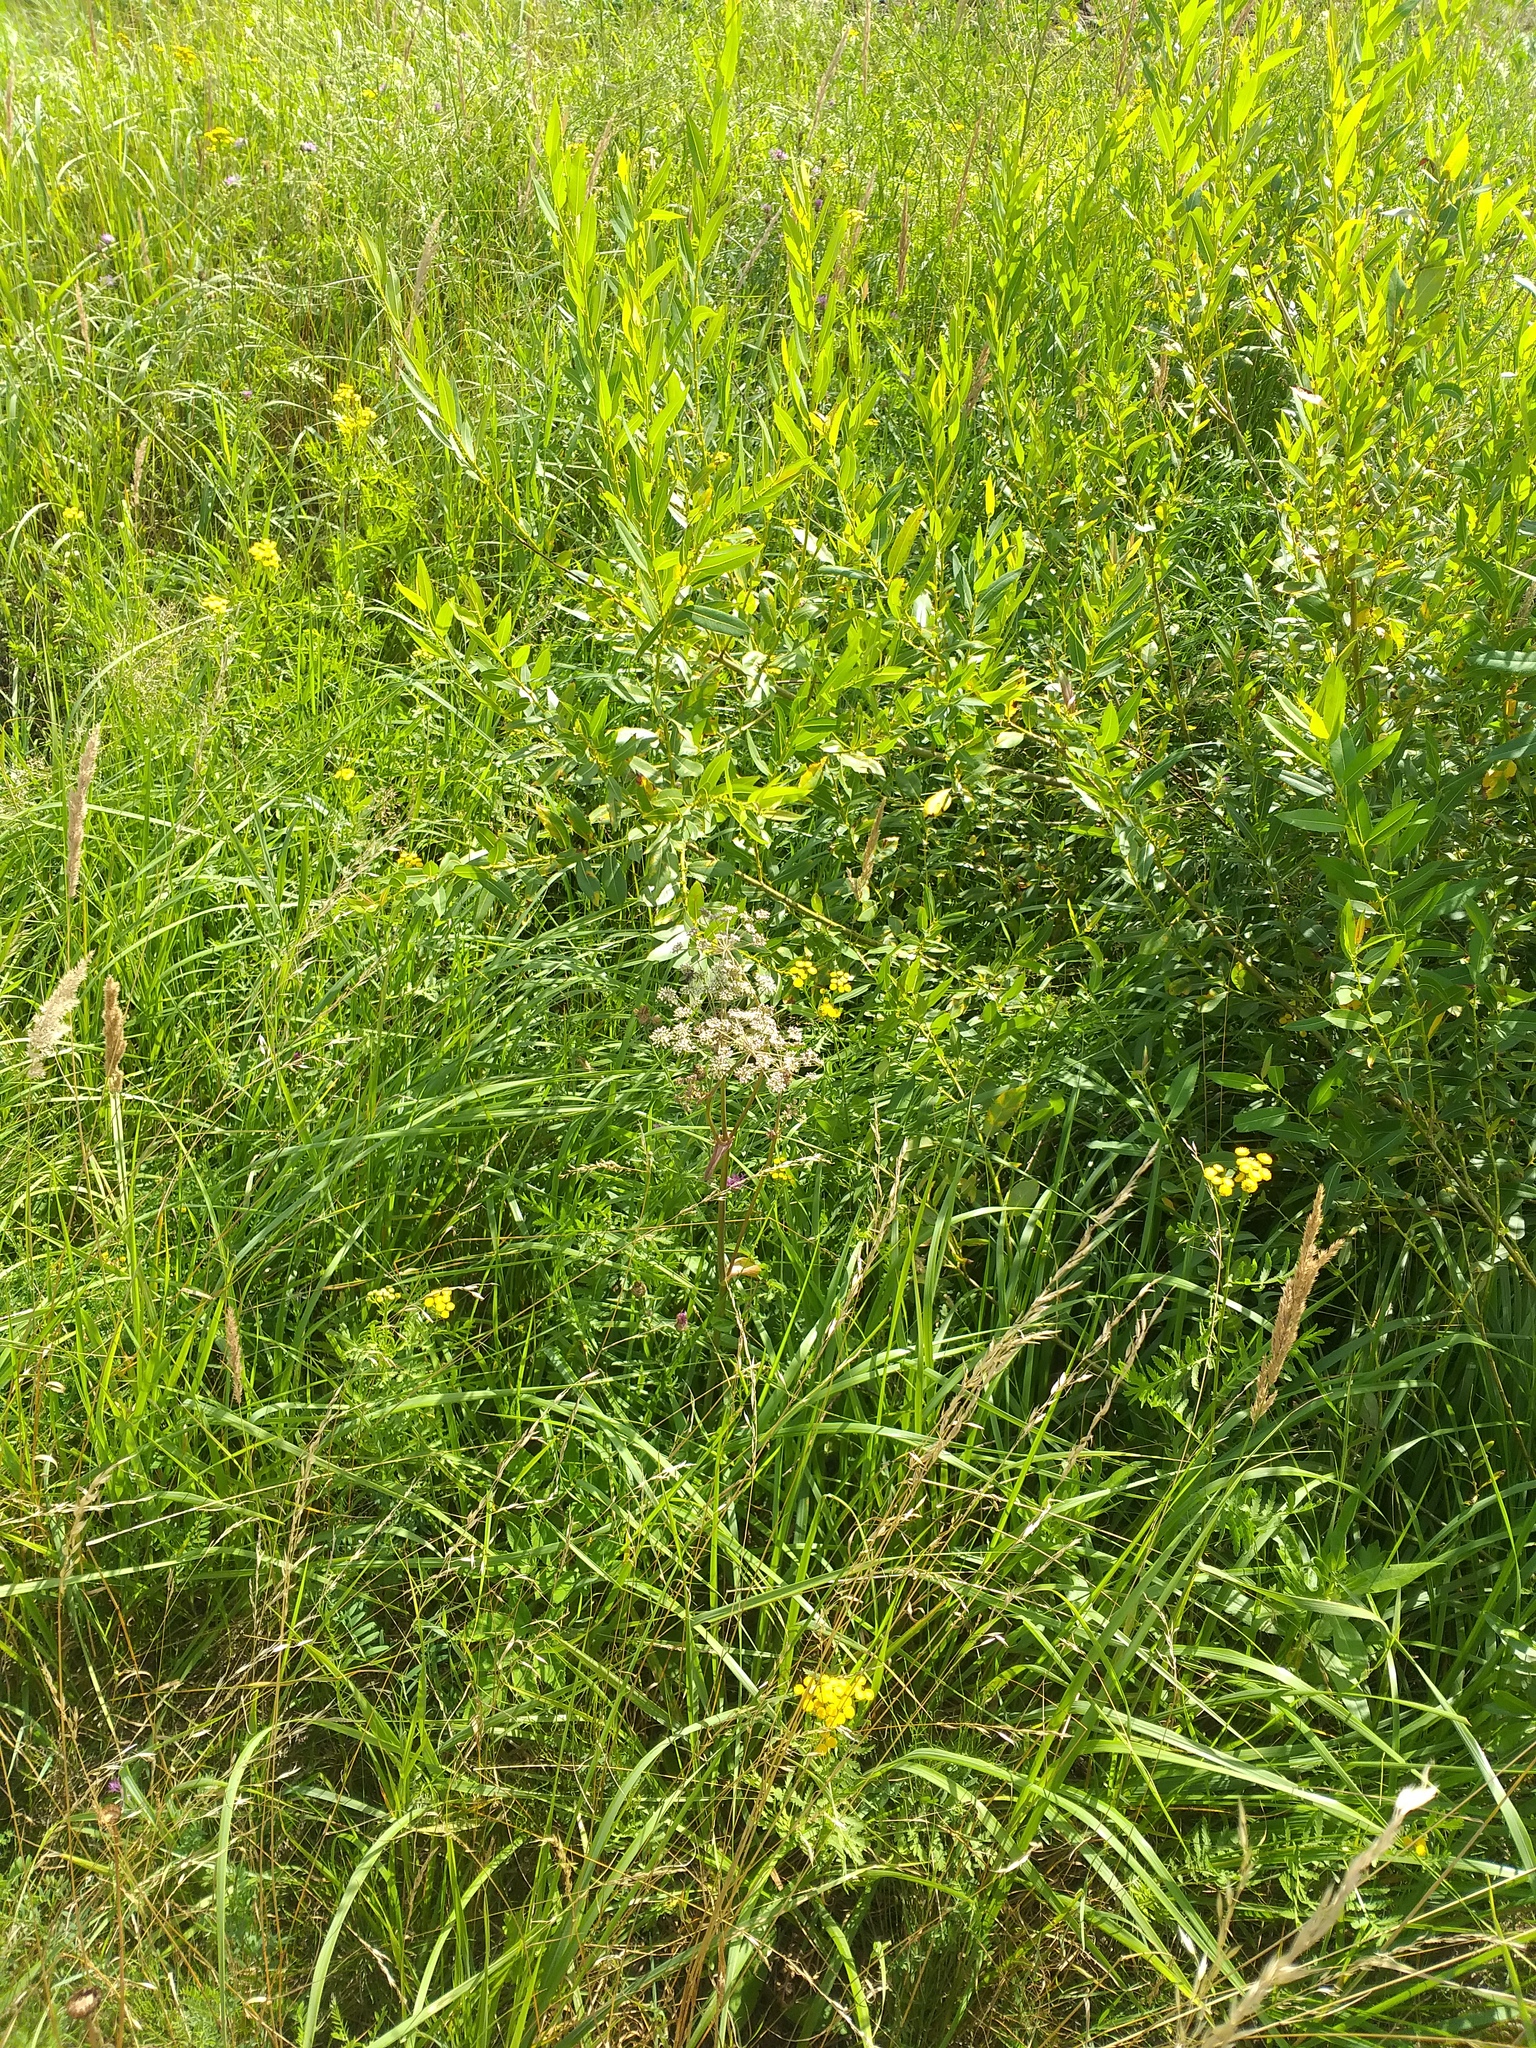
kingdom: Plantae
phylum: Tracheophyta
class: Magnoliopsida
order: Apiales
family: Apiaceae
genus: Angelica
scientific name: Angelica sylvestris
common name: Wild angelica
